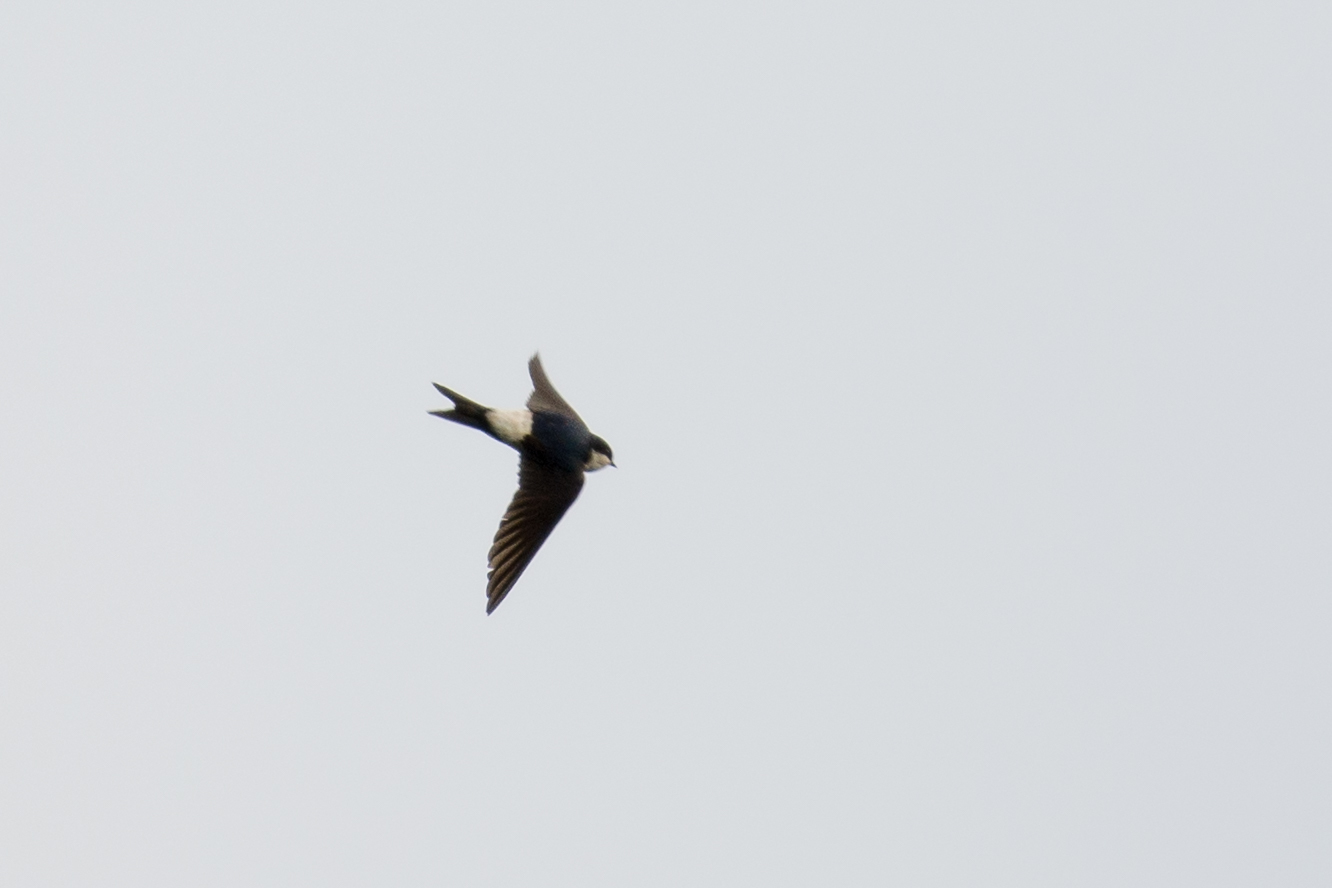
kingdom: Animalia
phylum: Chordata
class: Aves
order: Passeriformes
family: Hirundinidae
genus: Delichon
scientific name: Delichon urbicum
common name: Common house martin
